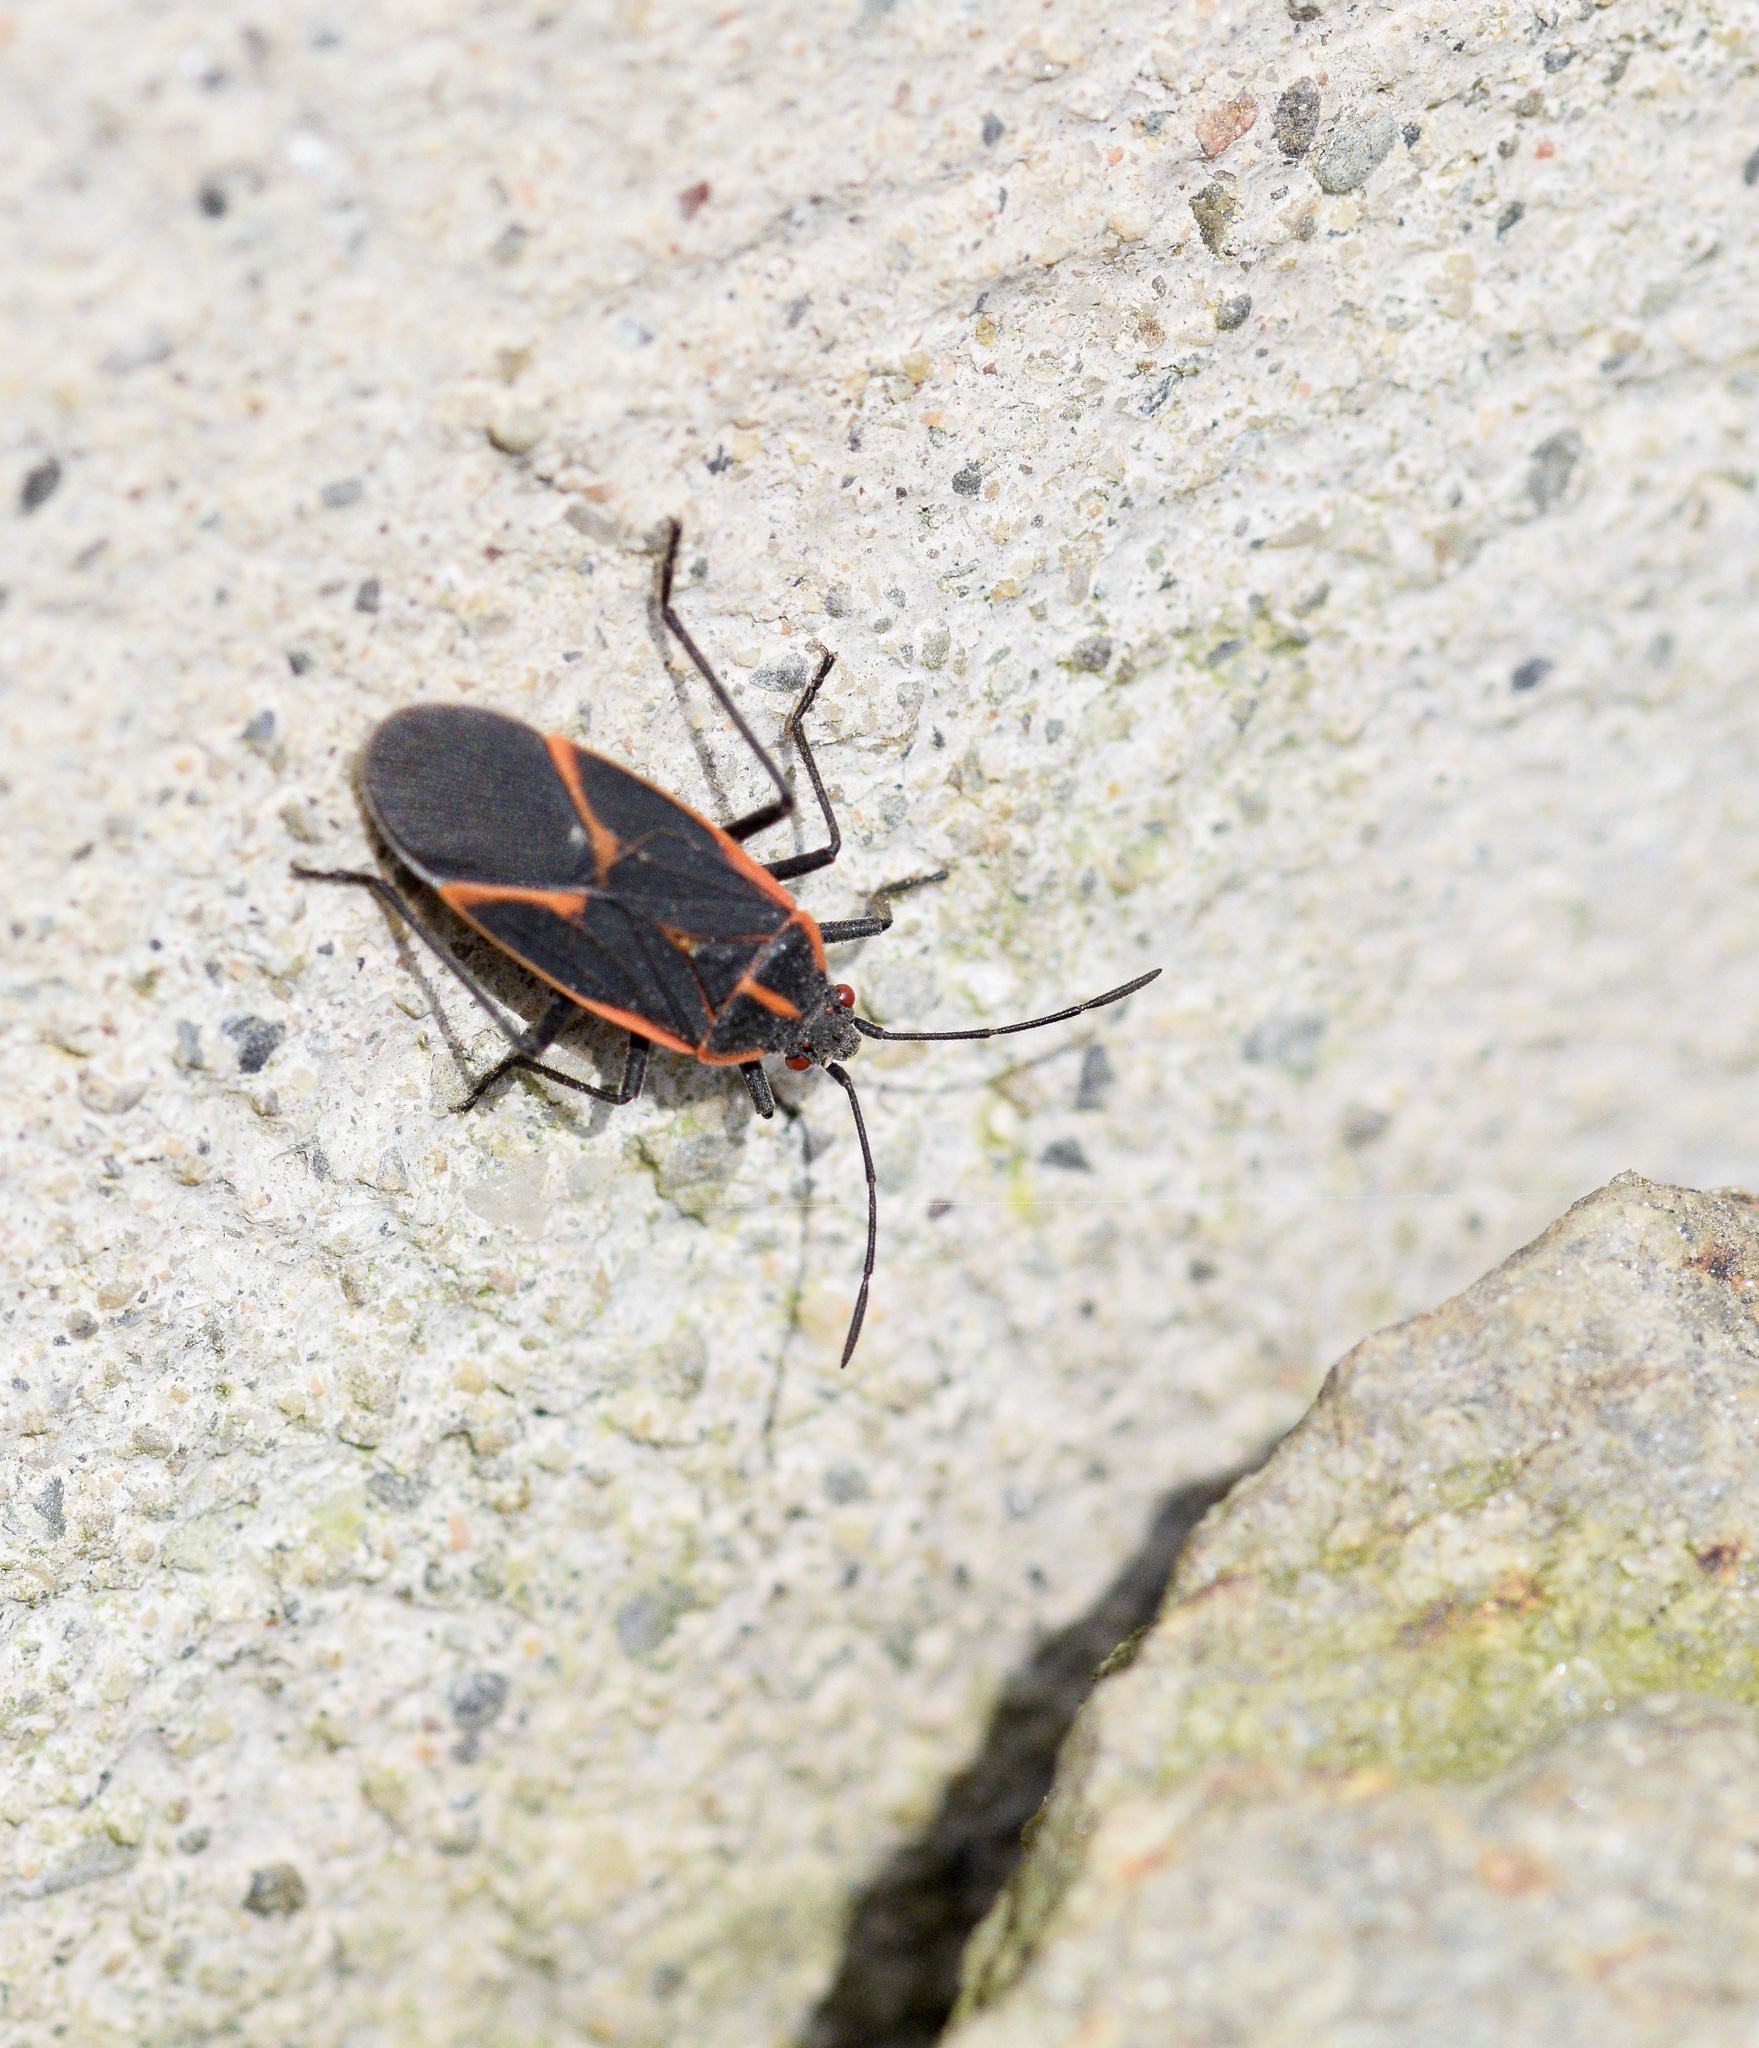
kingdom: Animalia
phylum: Arthropoda
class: Insecta
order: Hemiptera
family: Rhopalidae
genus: Boisea
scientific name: Boisea trivittata
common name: Boxelder bug
